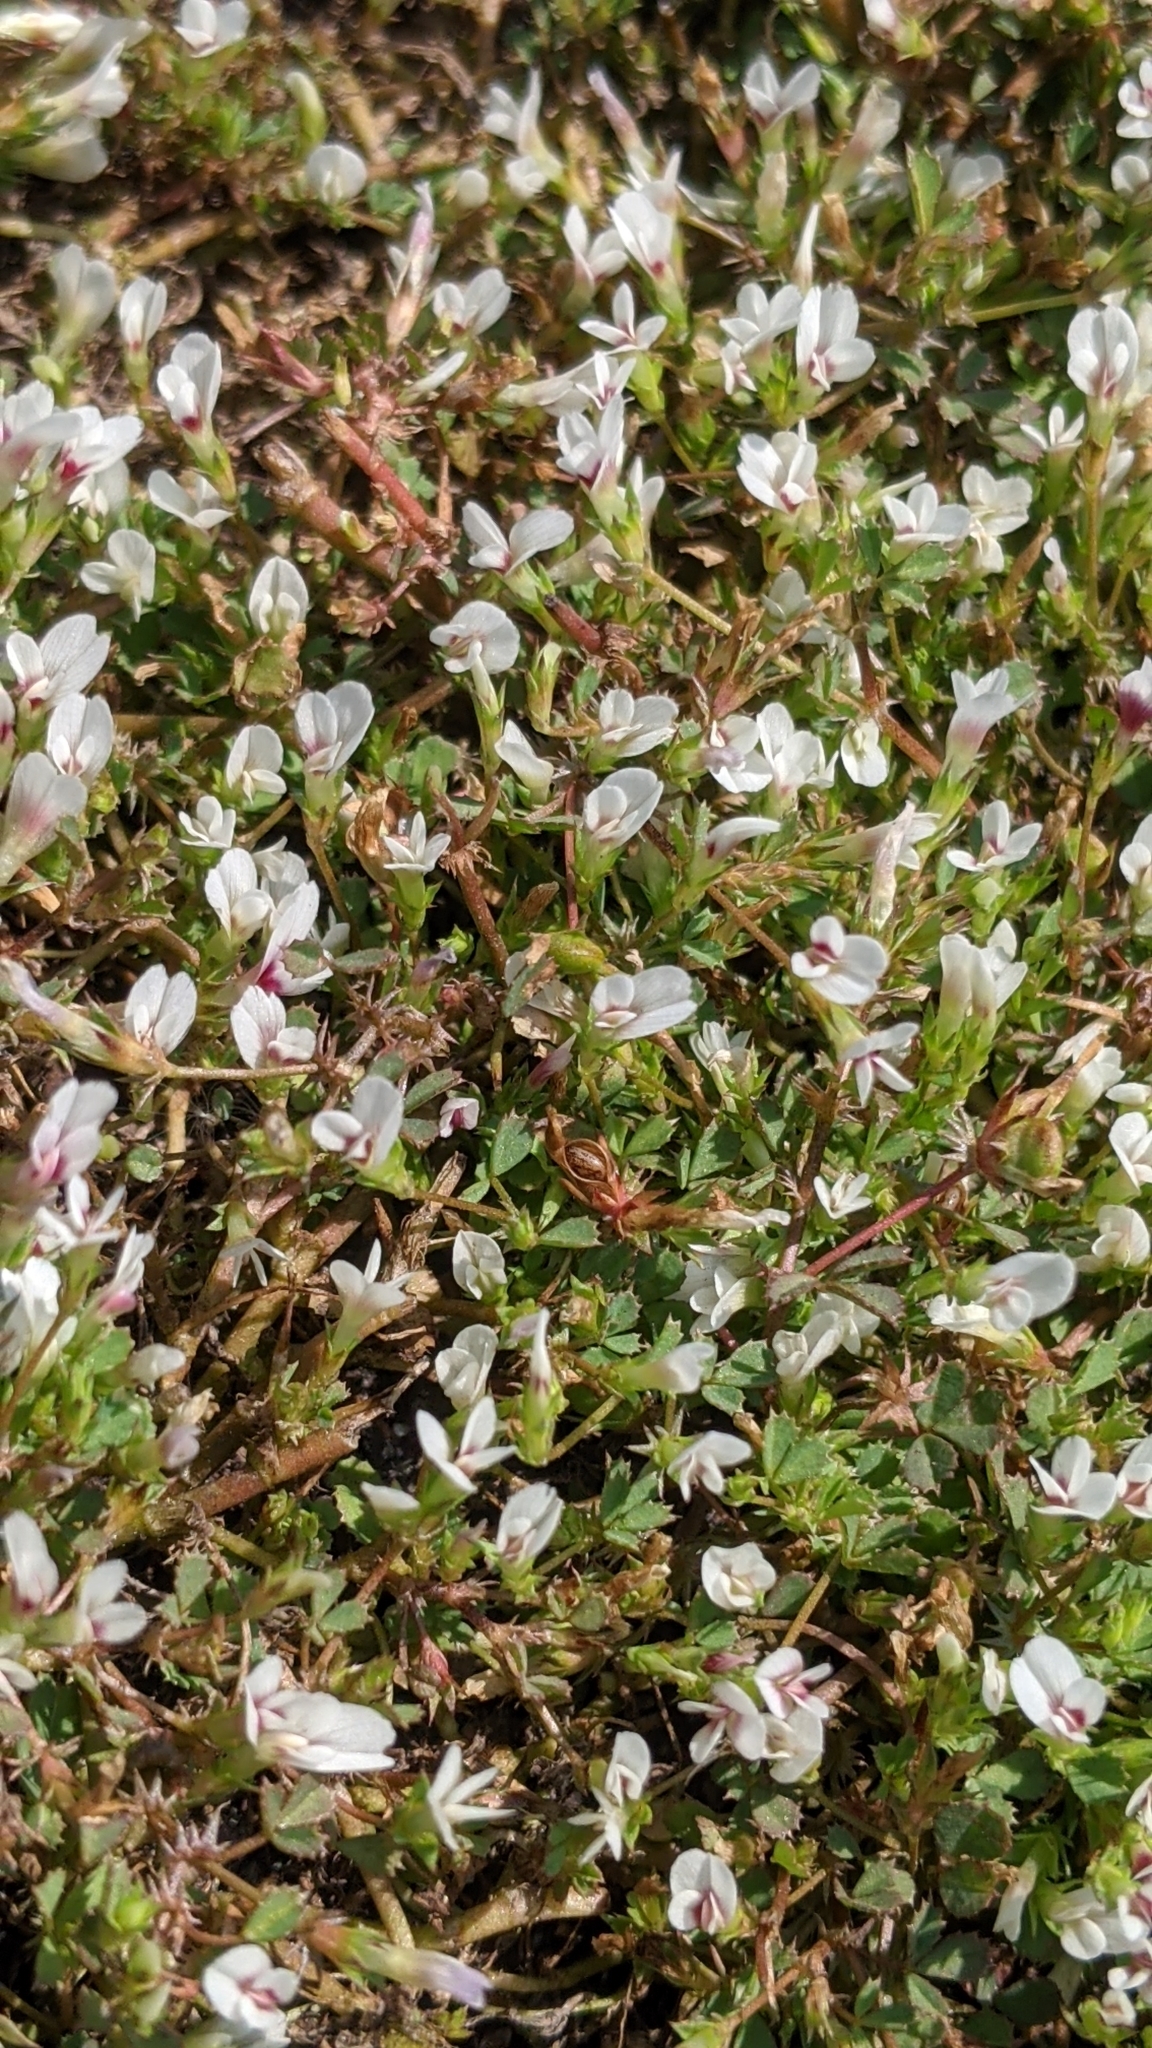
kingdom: Plantae
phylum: Tracheophyta
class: Magnoliopsida
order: Fabales
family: Fabaceae
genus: Trifolium
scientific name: Trifolium monanthum
